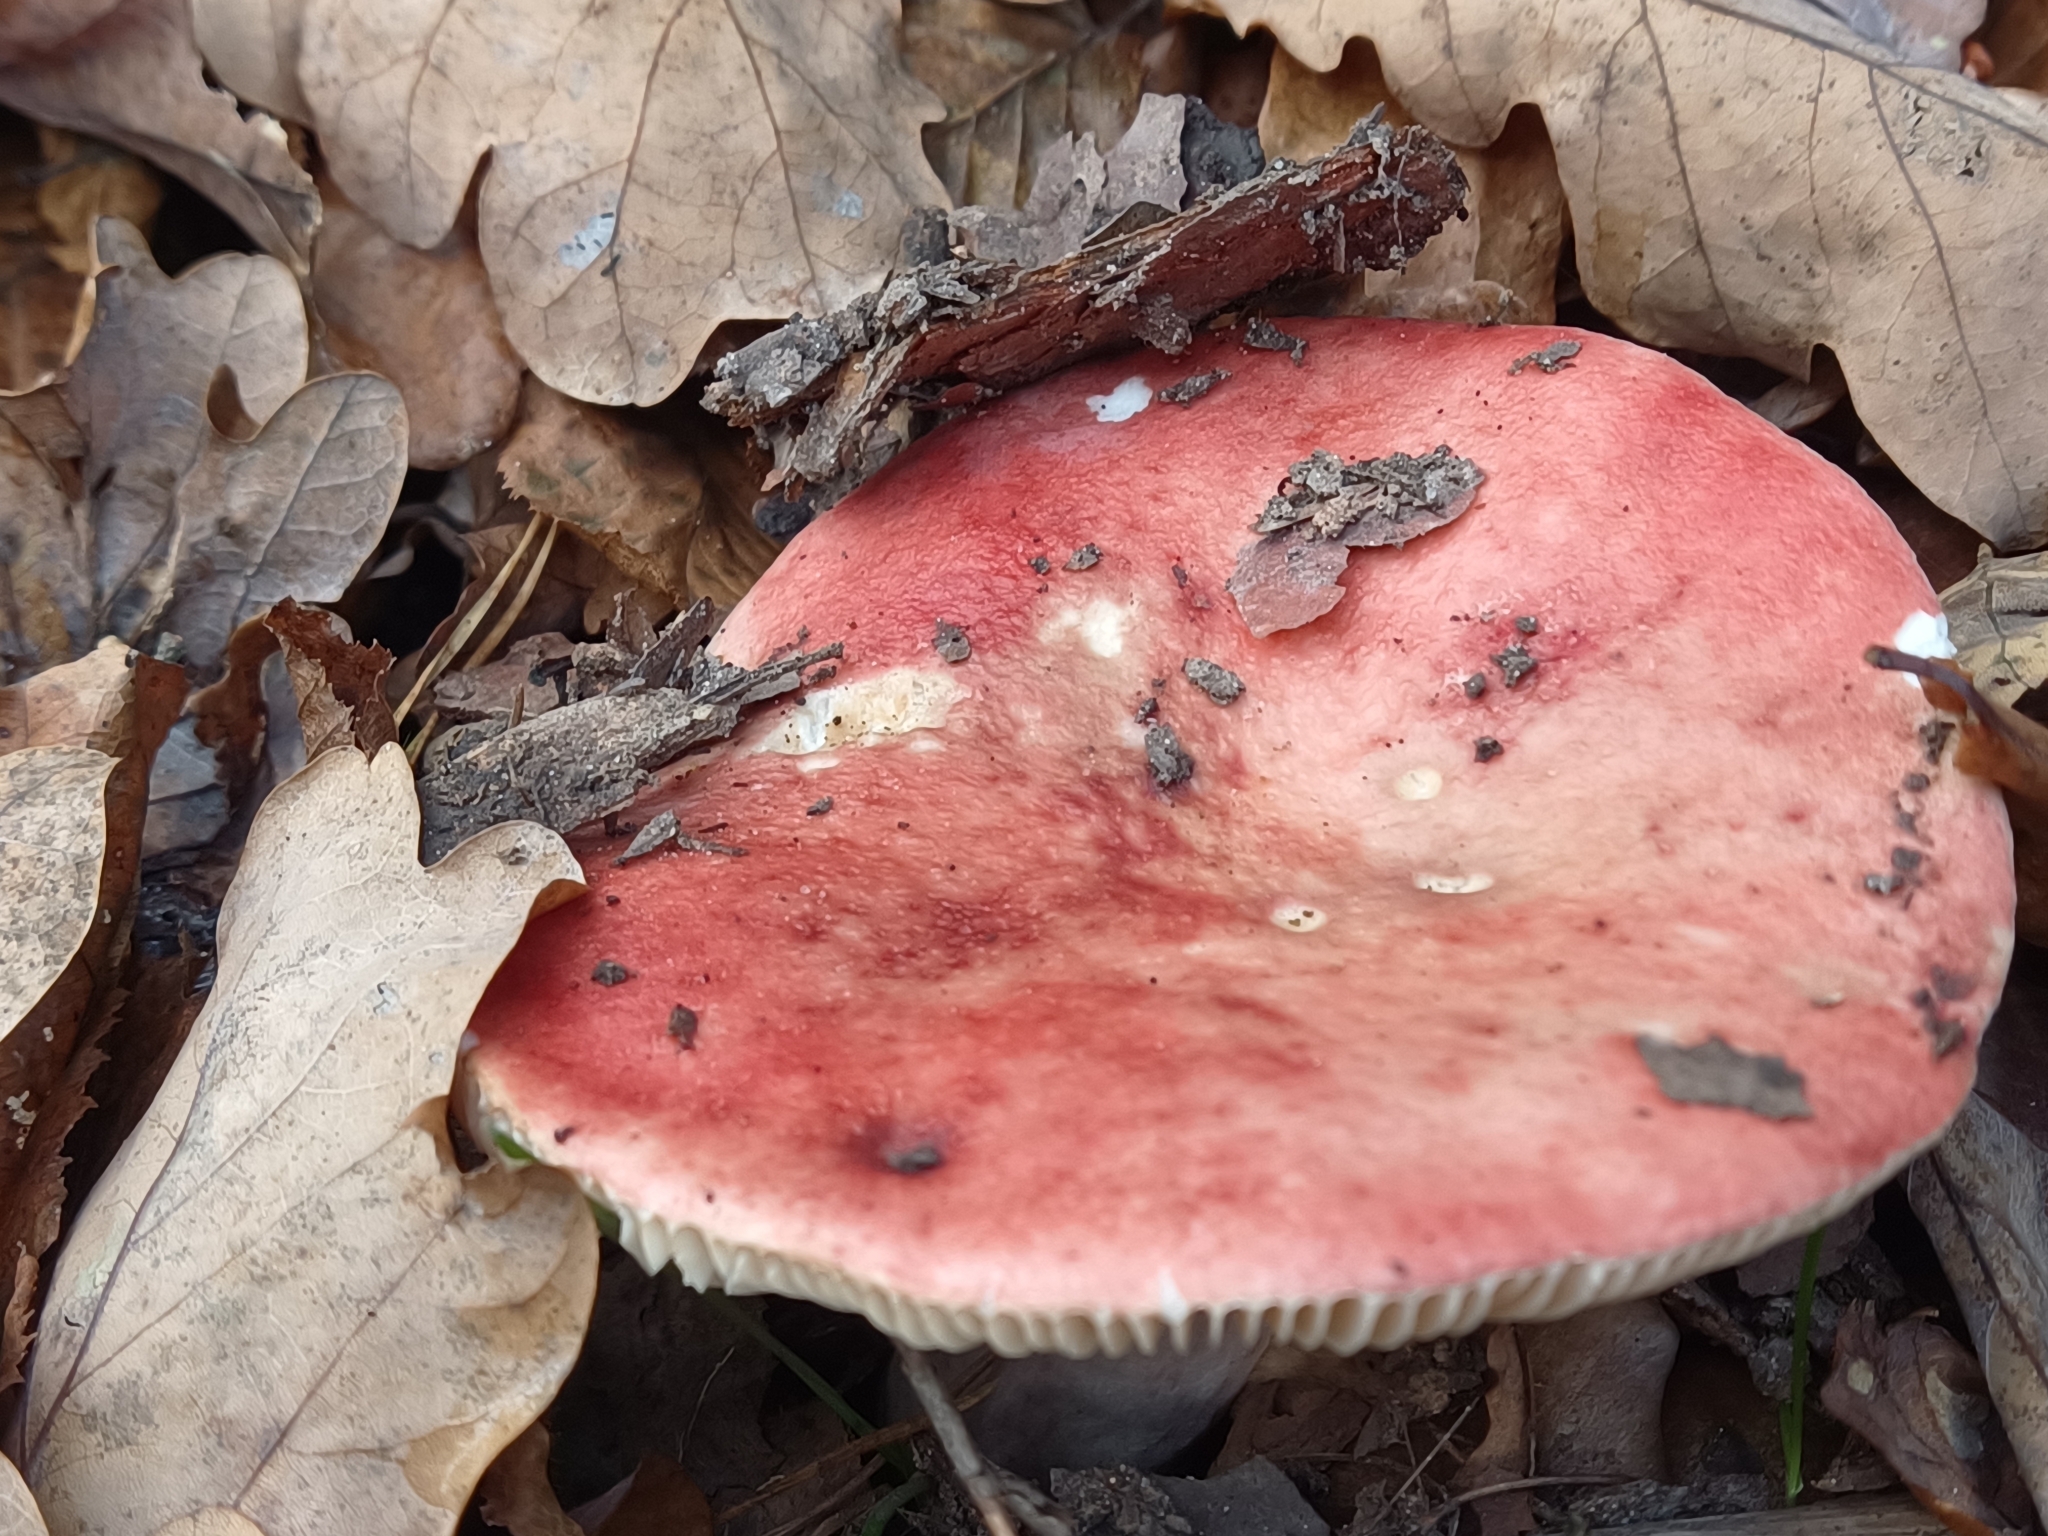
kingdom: Fungi
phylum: Basidiomycota
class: Agaricomycetes
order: Russulales
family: Russulaceae
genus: Russula
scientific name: Russula sanguinea
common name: Bloody brittlegill
